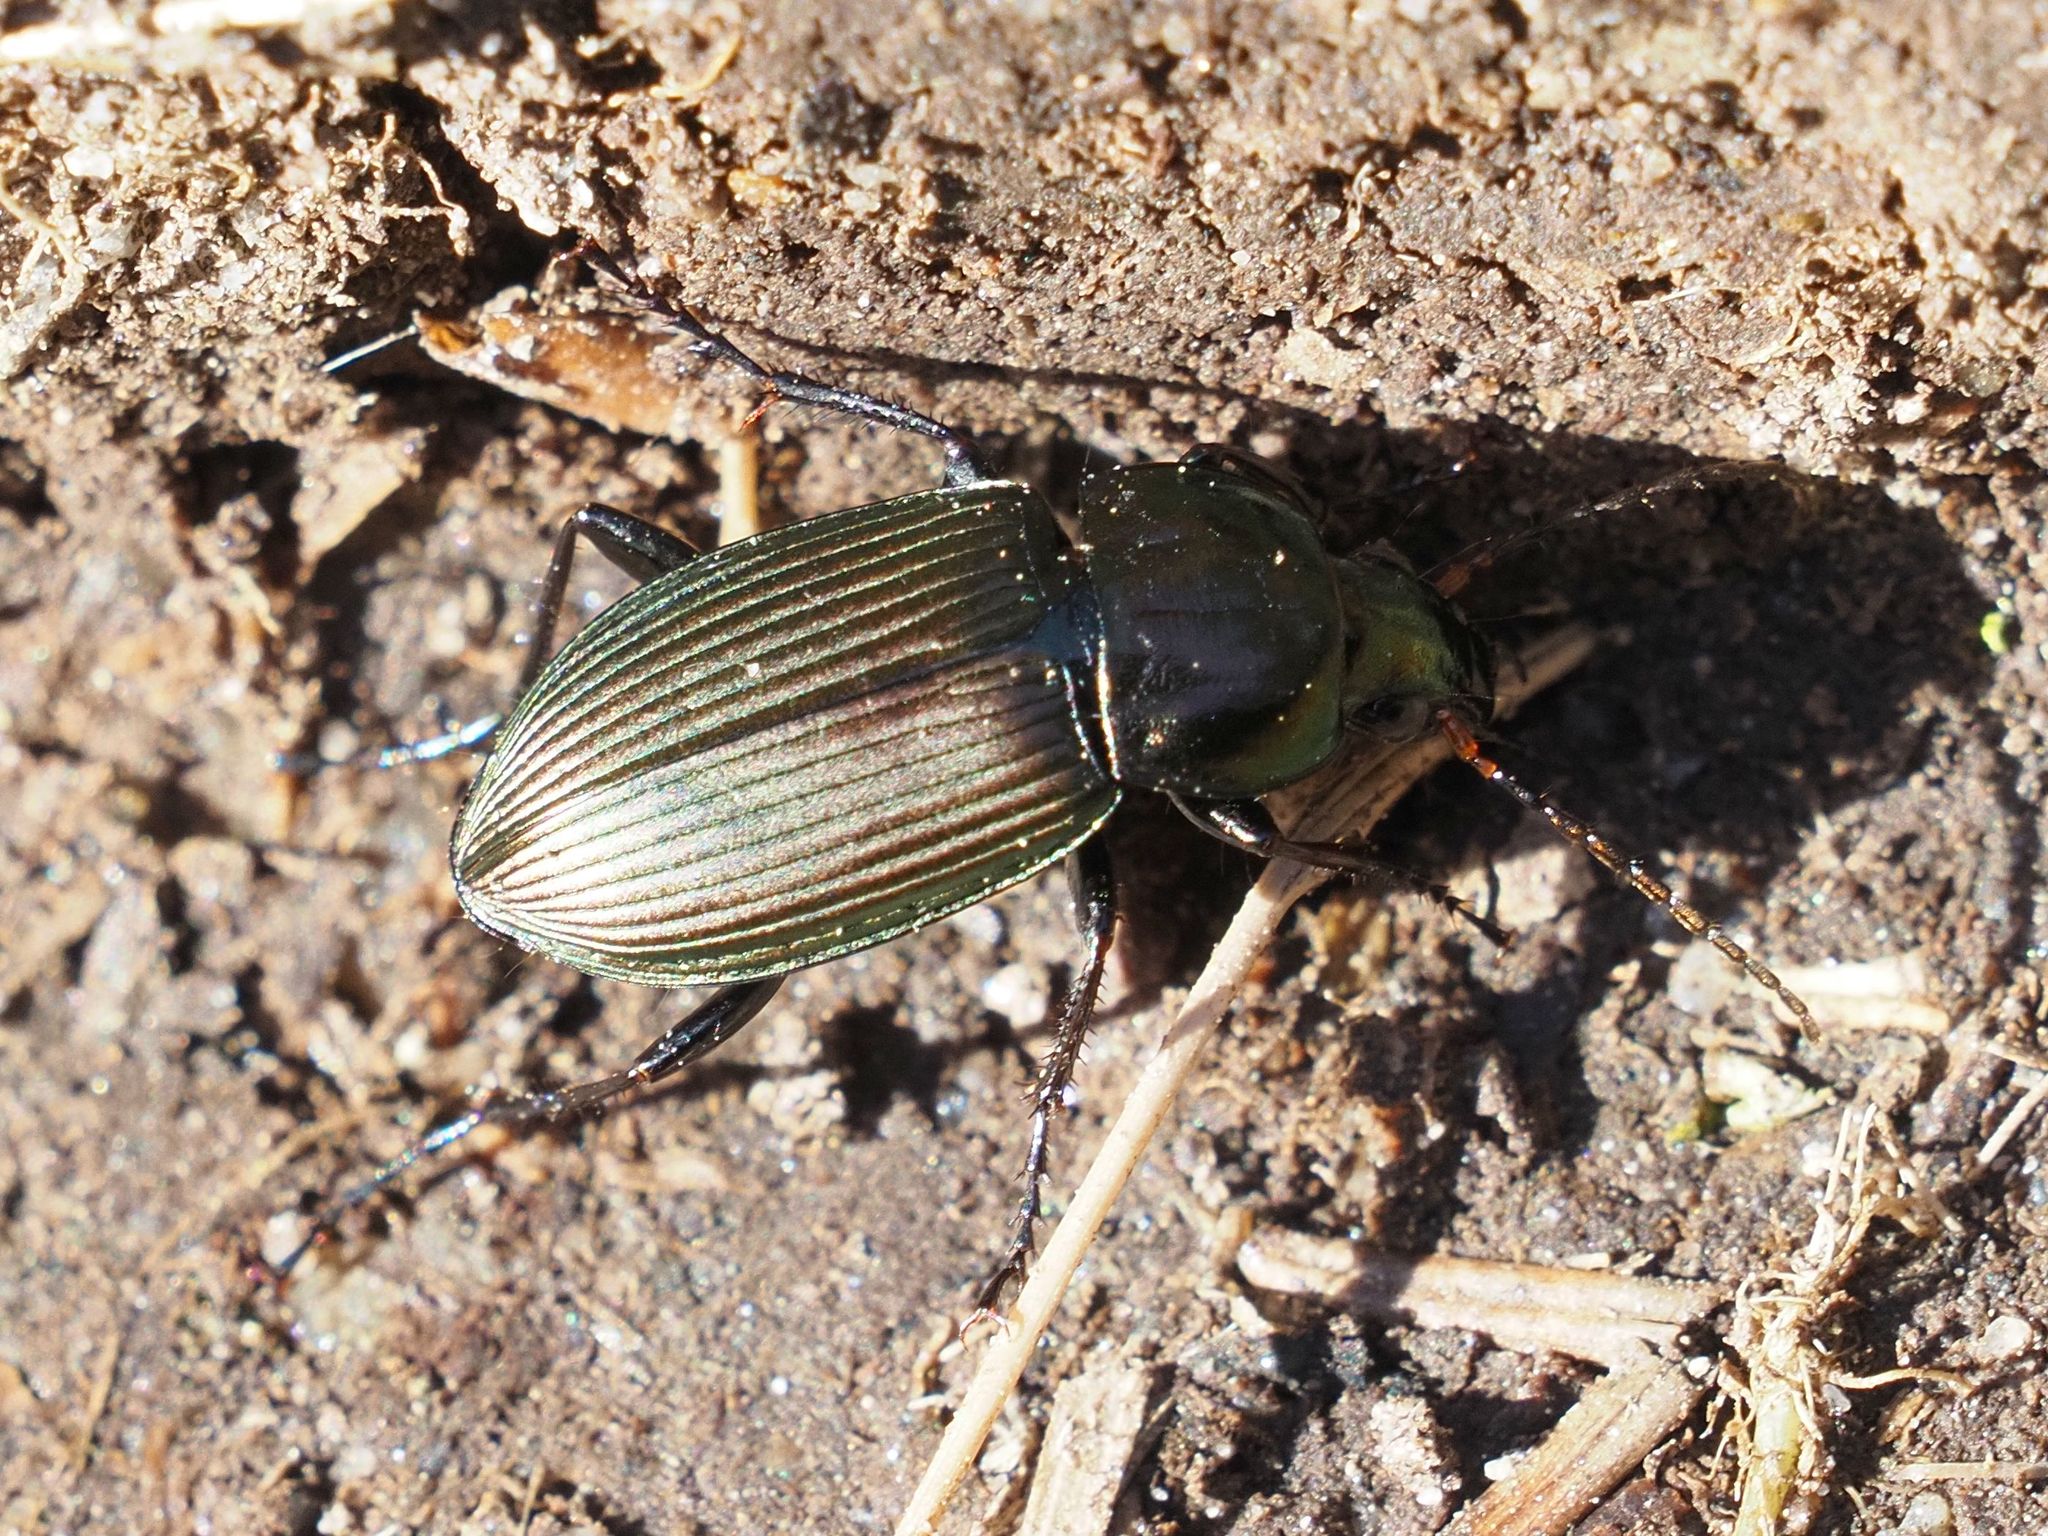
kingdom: Animalia
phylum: Arthropoda
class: Insecta
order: Coleoptera
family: Carabidae
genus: Poecilus
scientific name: Poecilus cupreus
